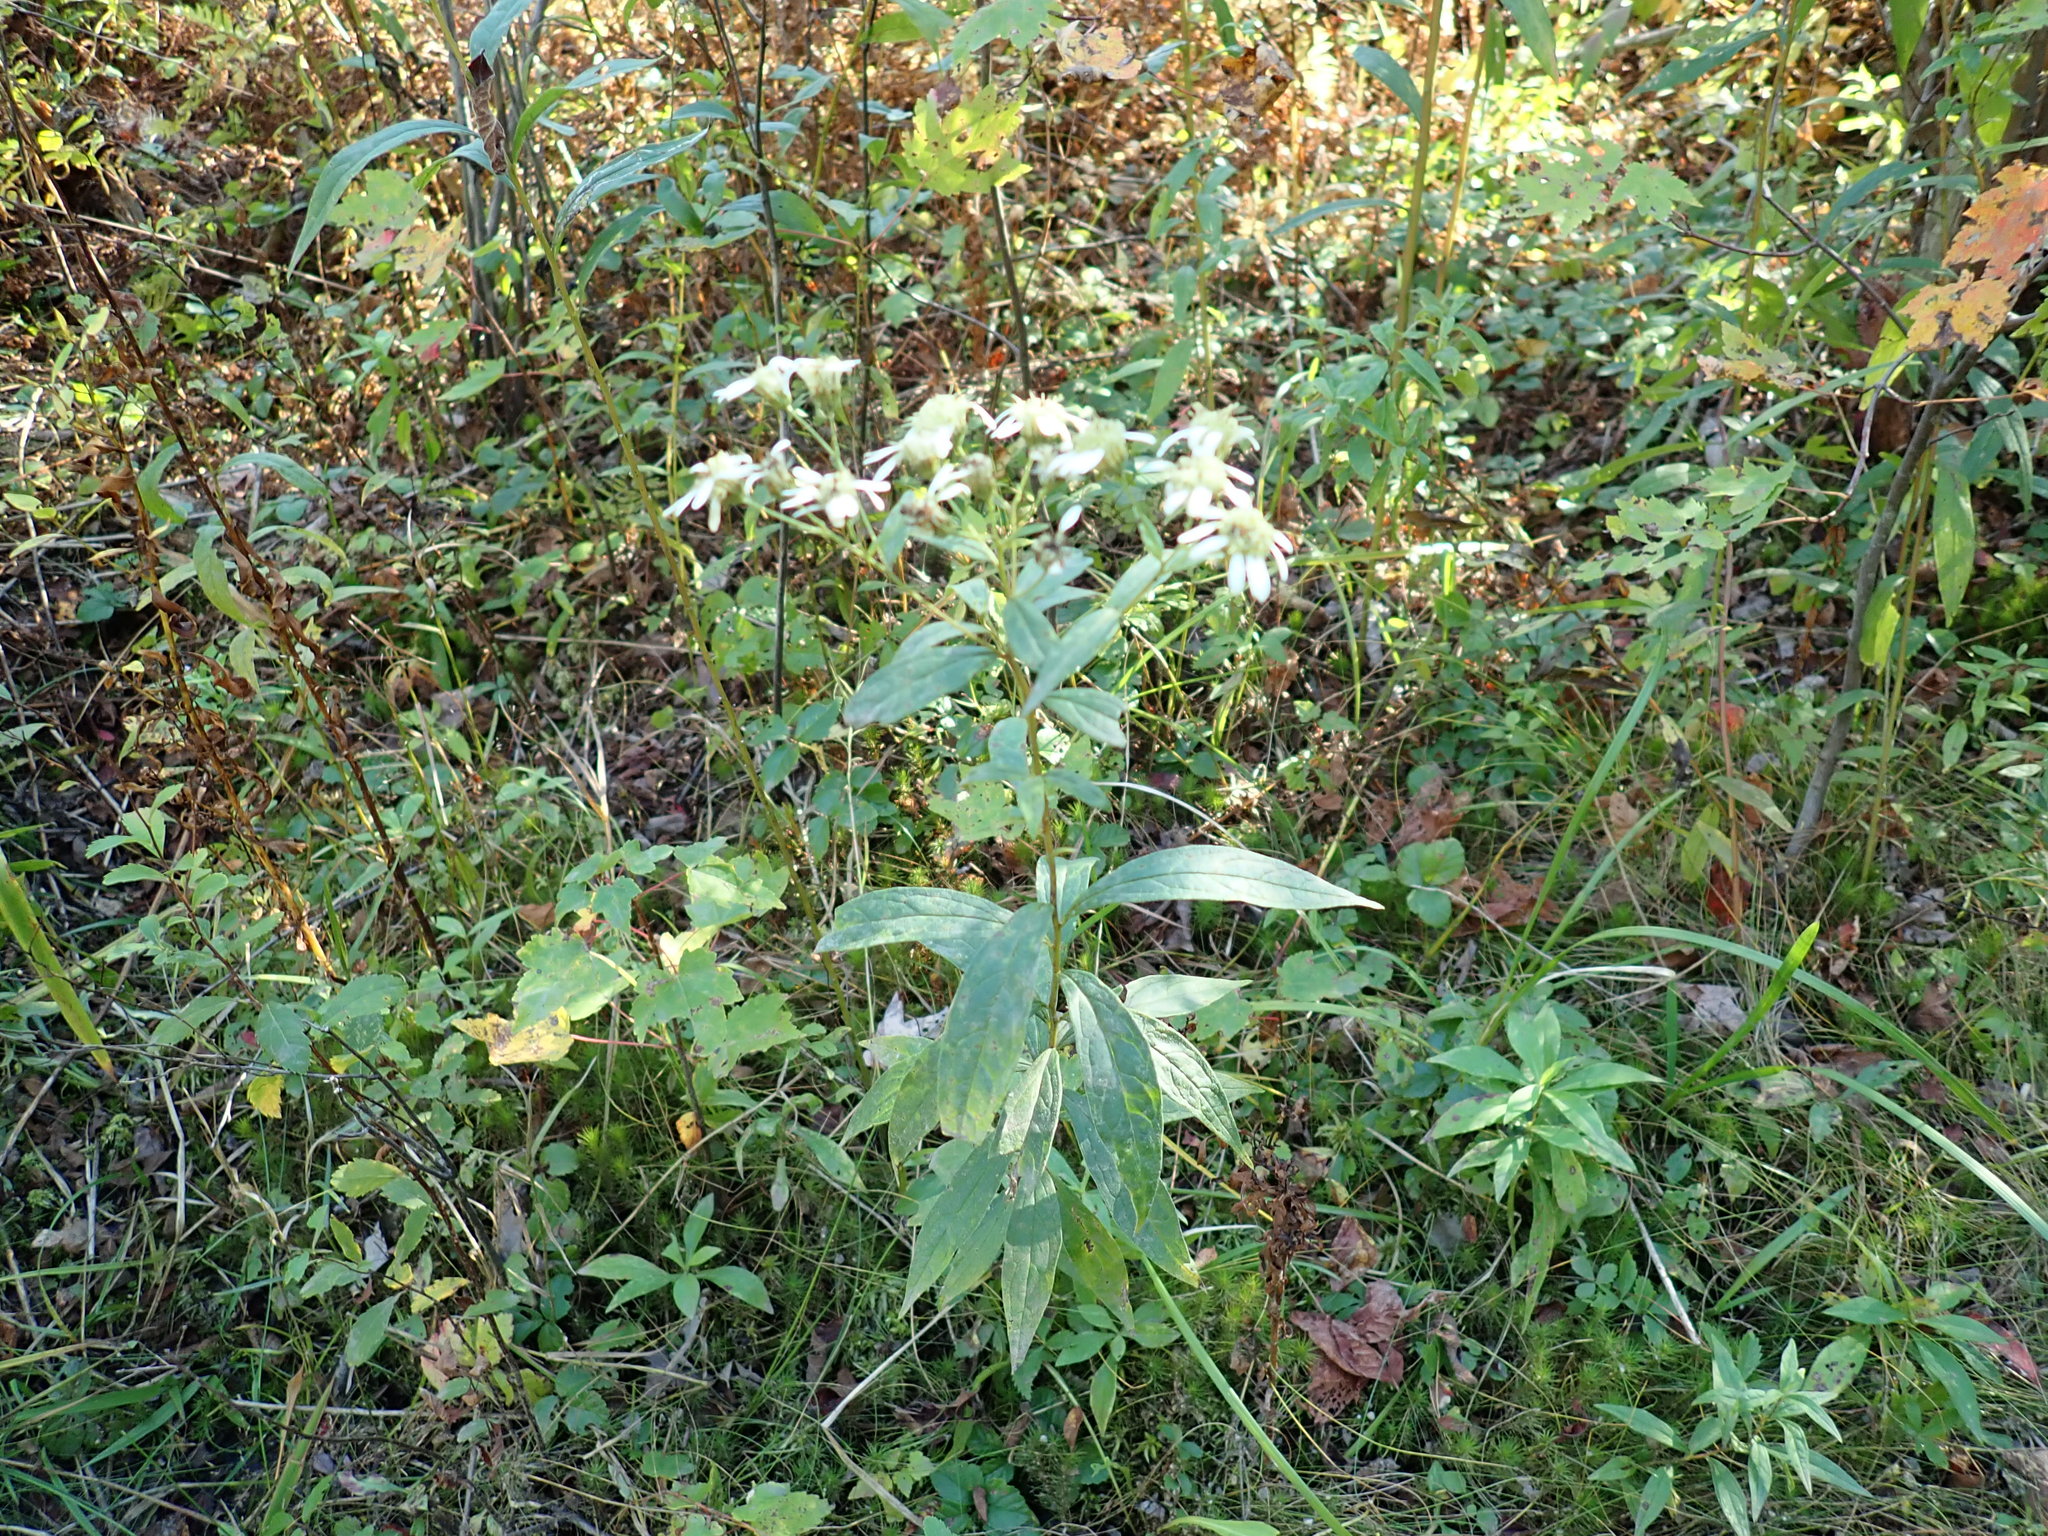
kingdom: Plantae
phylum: Tracheophyta
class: Magnoliopsida
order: Asterales
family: Asteraceae
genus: Doellingeria
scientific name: Doellingeria umbellata
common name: Flat-top white aster
